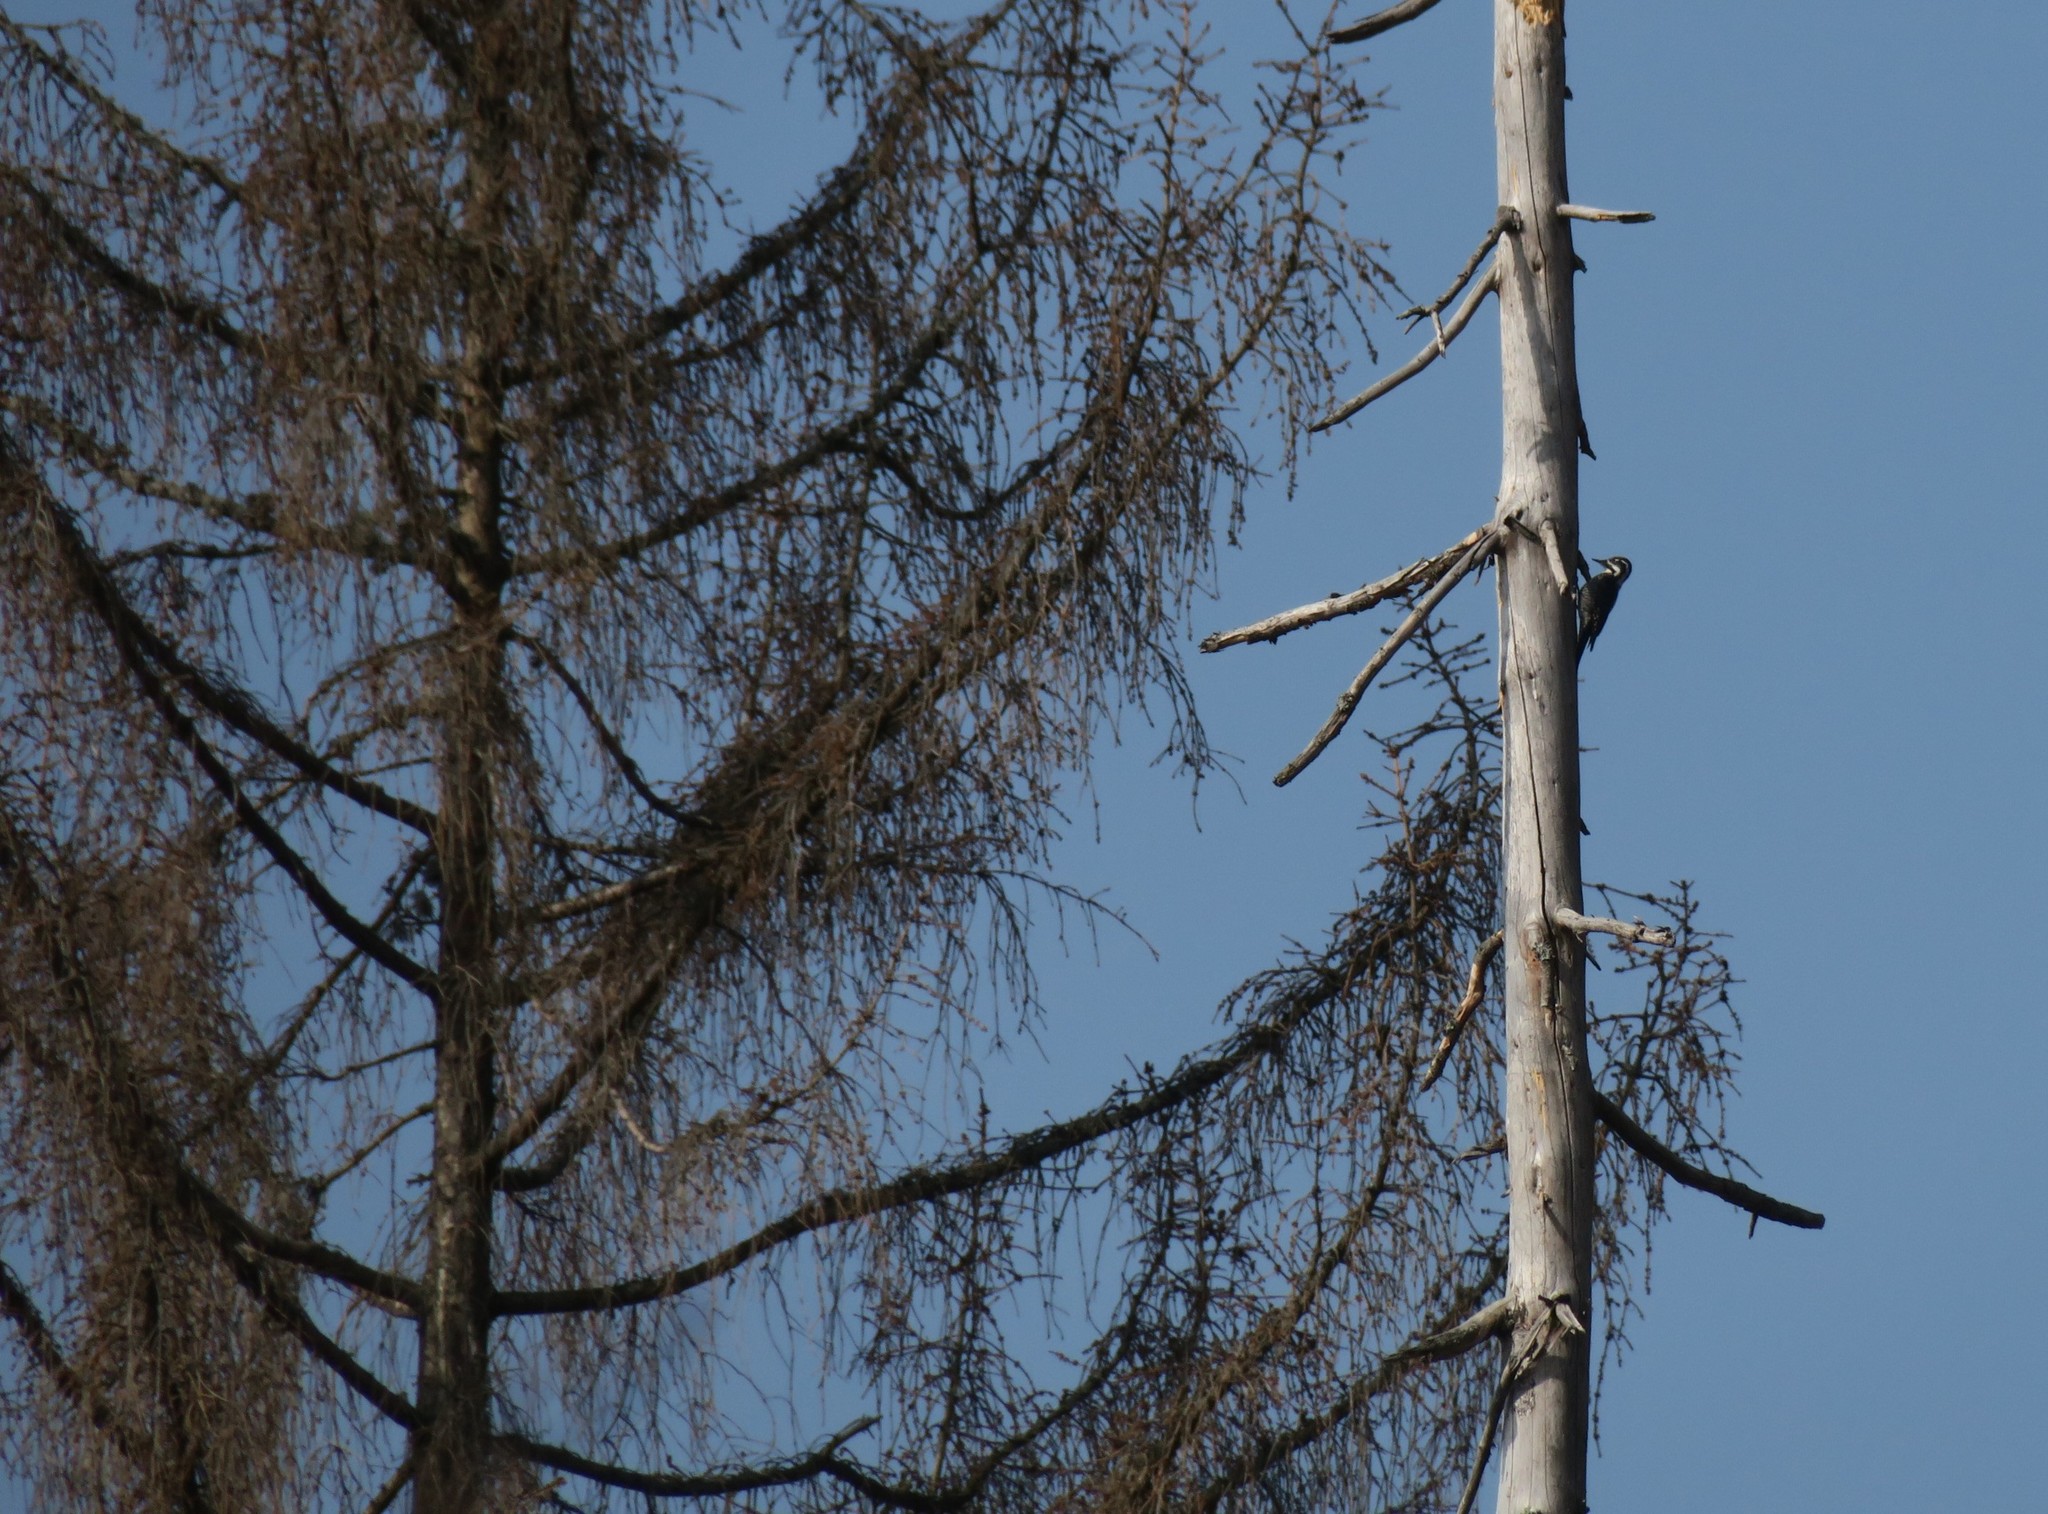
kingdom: Animalia
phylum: Chordata
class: Aves
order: Piciformes
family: Picidae
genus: Picoides
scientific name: Picoides tridactylus
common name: Eurasian three-toed woodpecker
